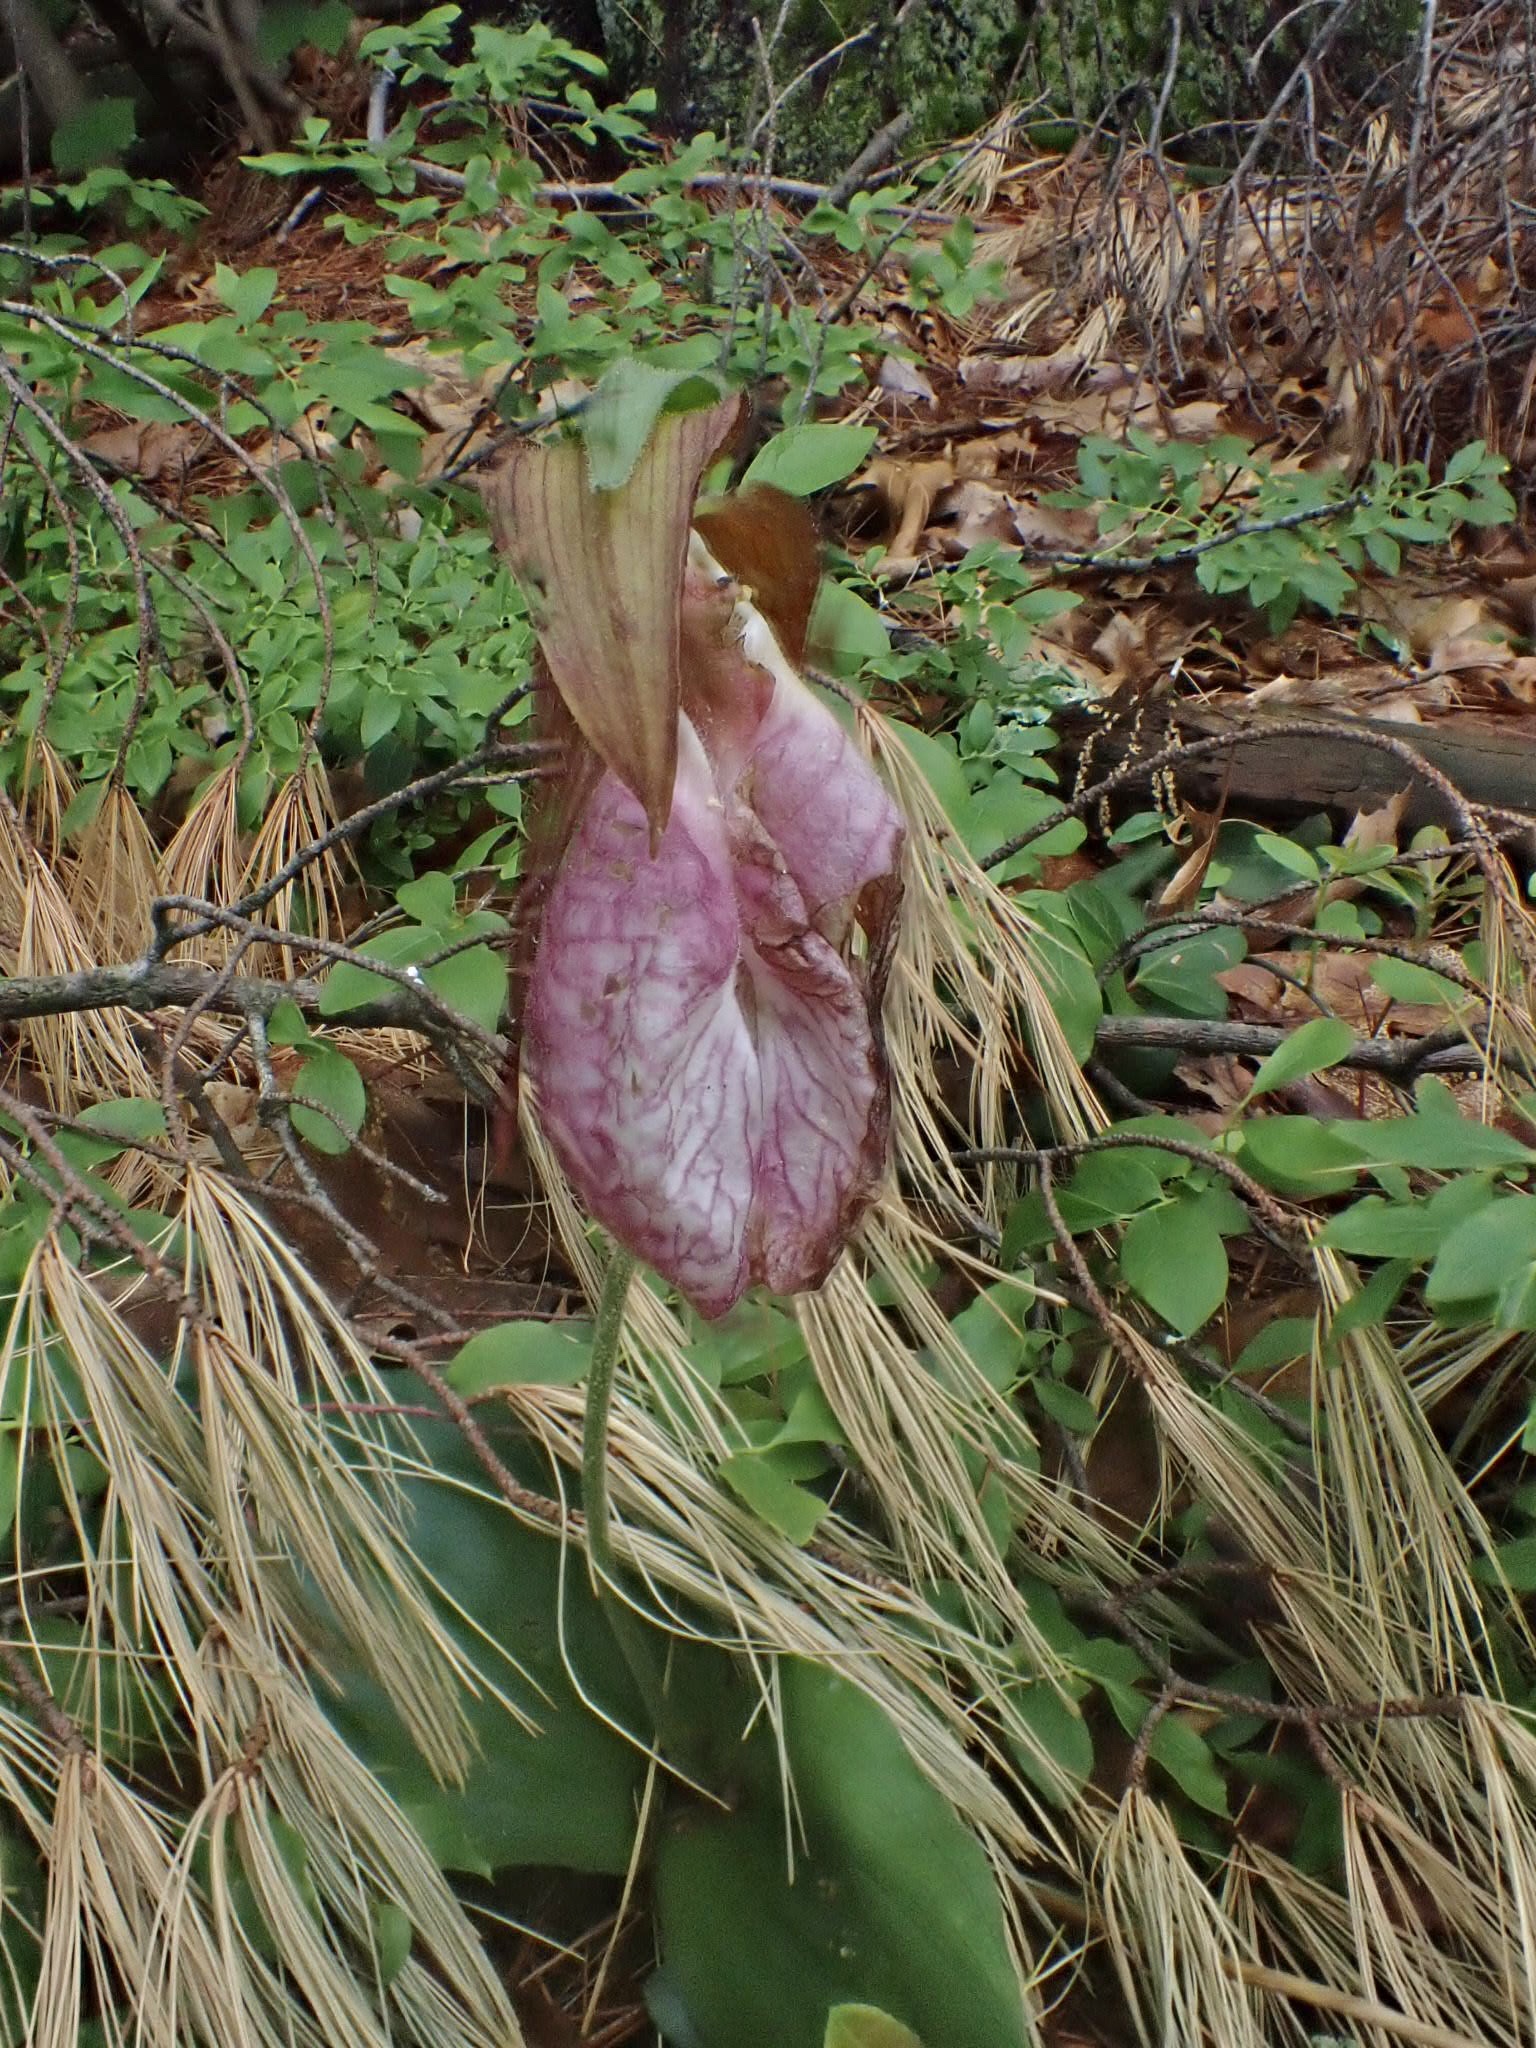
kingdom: Plantae
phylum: Tracheophyta
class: Liliopsida
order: Asparagales
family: Orchidaceae
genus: Cypripedium
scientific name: Cypripedium acaule
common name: Pink lady's-slipper
